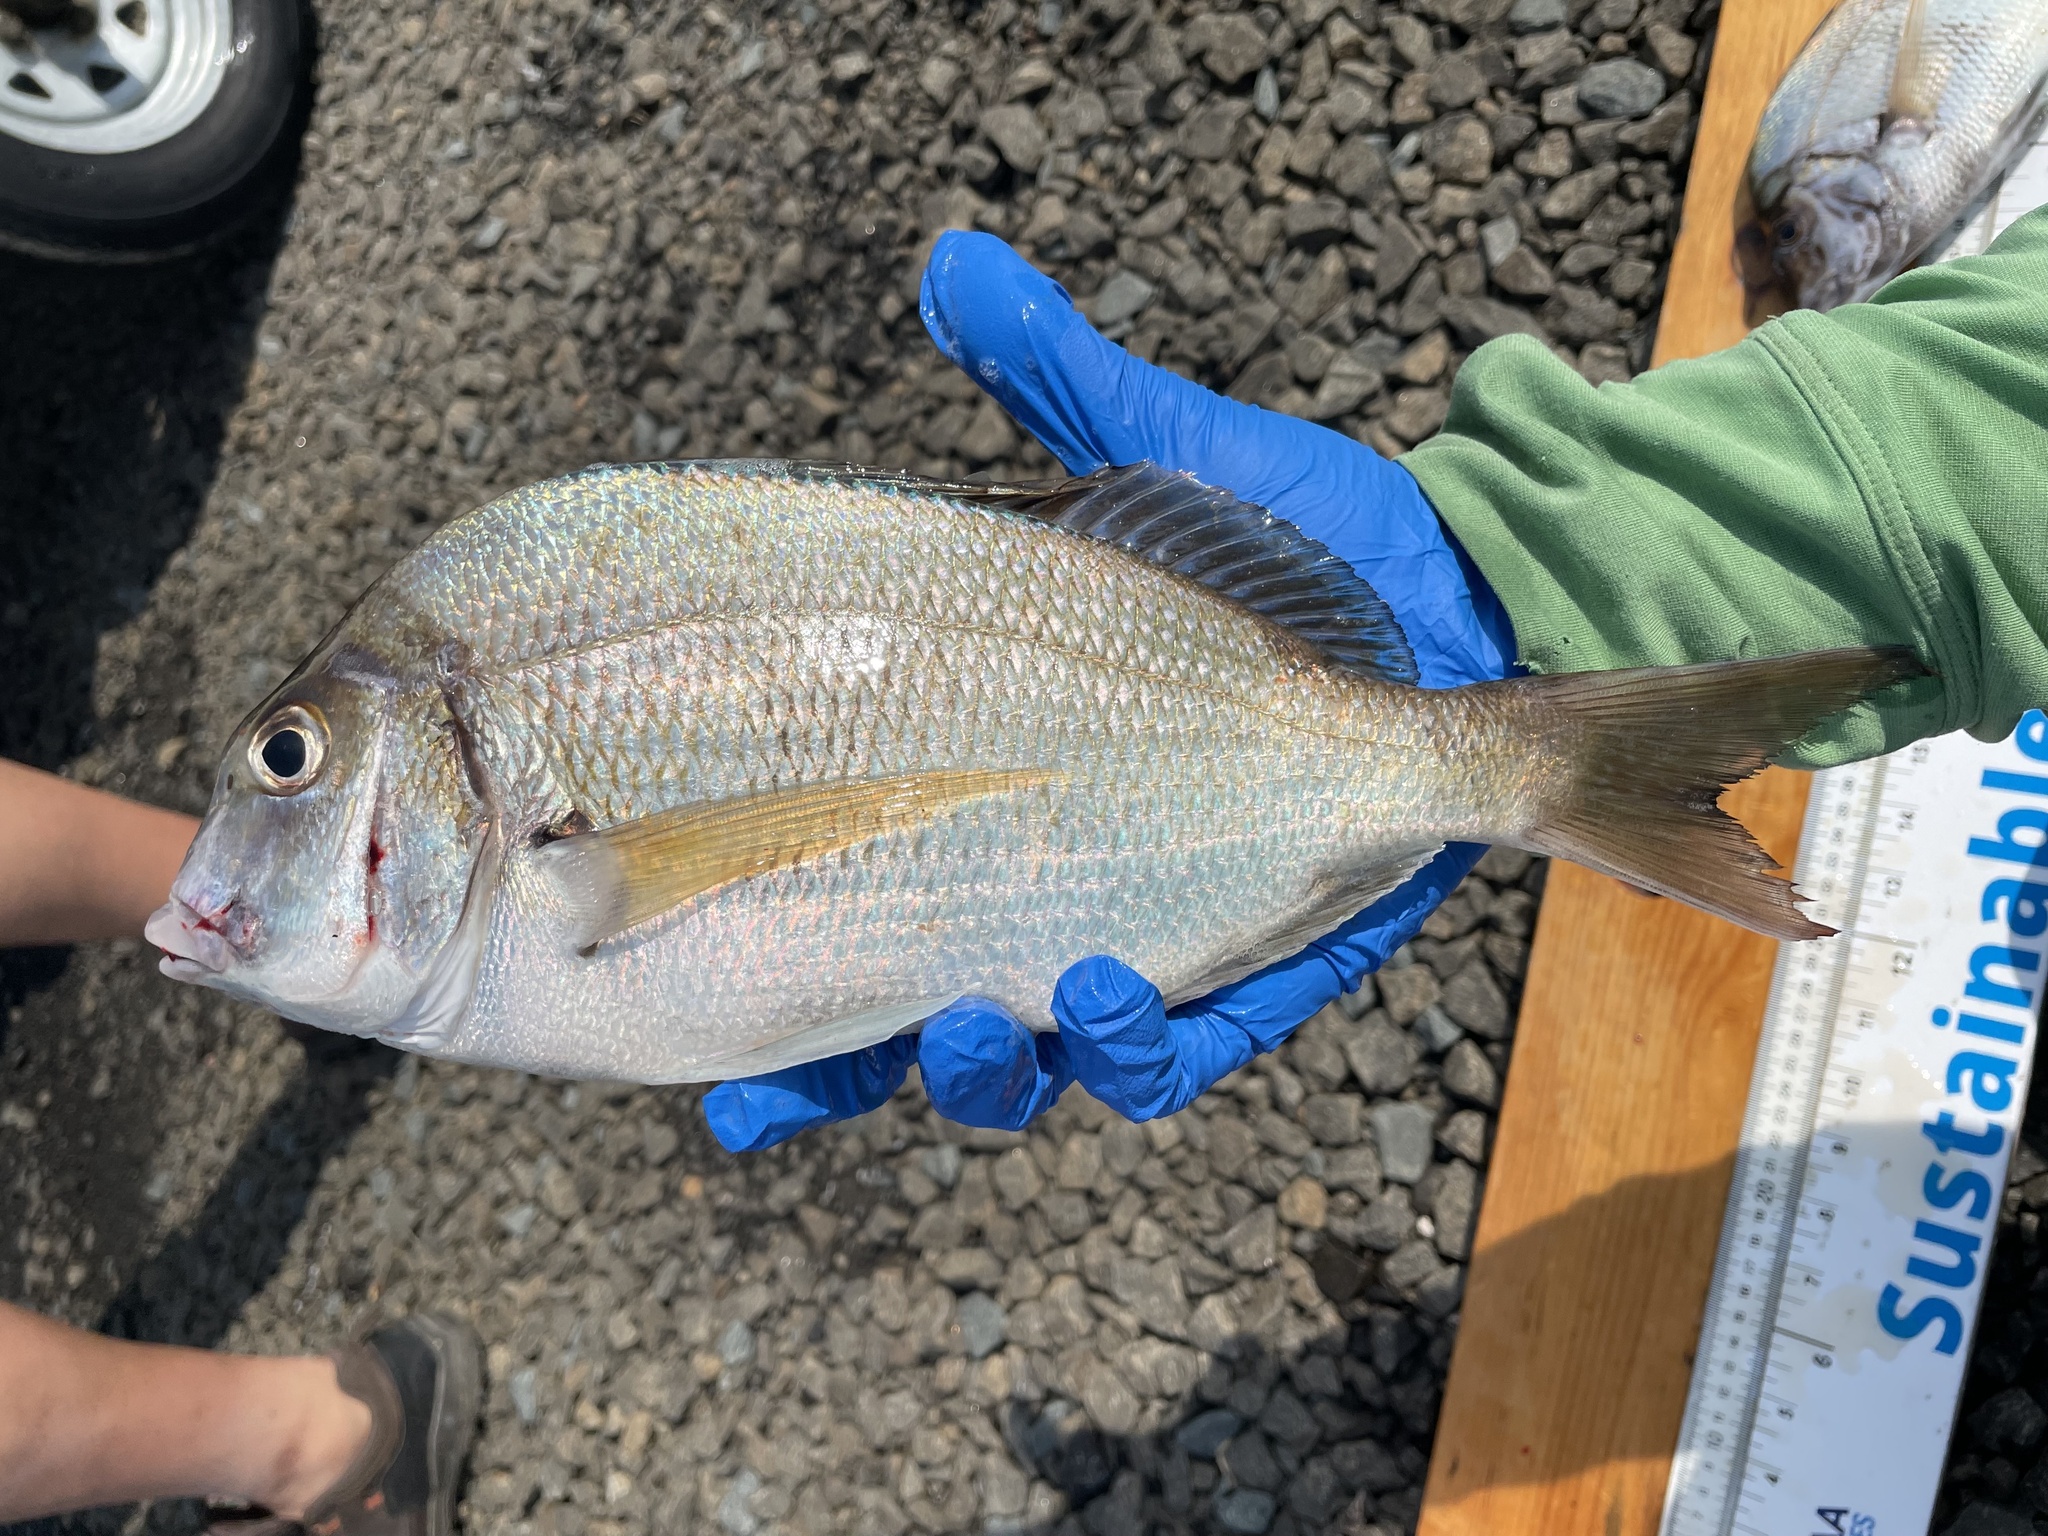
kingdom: Animalia
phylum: Chordata
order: Perciformes
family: Sparidae
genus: Stenotomus
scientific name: Stenotomus chrysops
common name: Scup
